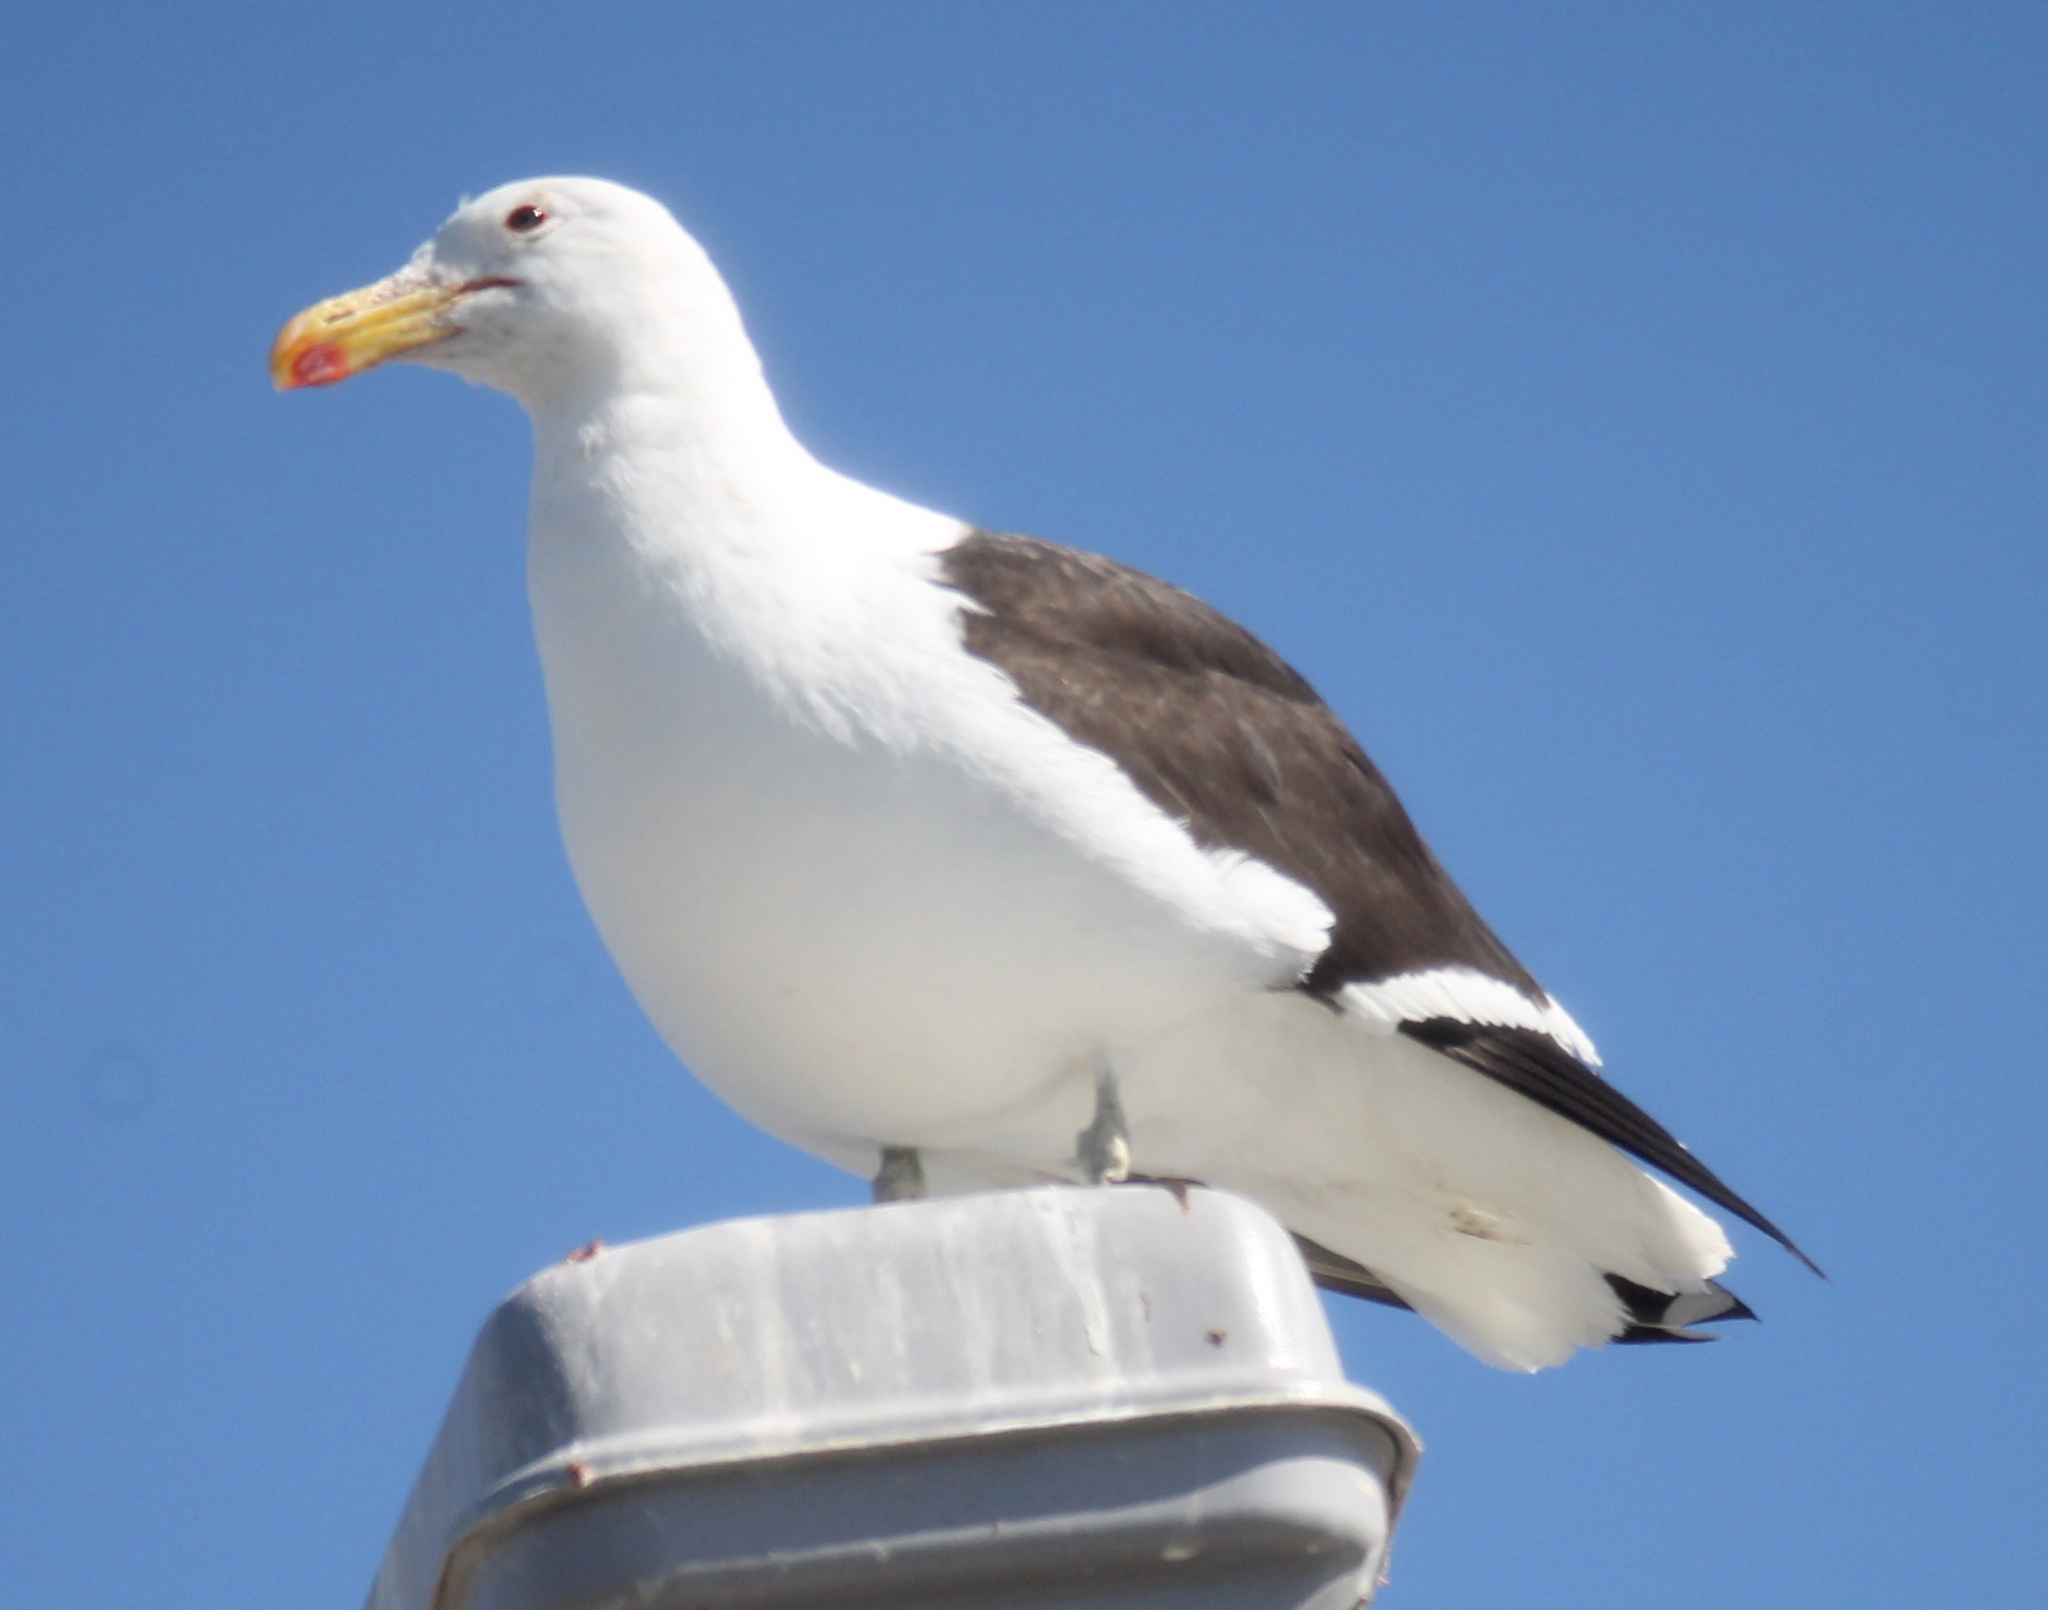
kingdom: Animalia
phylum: Chordata
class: Aves
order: Charadriiformes
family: Laridae
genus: Larus
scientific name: Larus dominicanus
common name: Kelp gull
